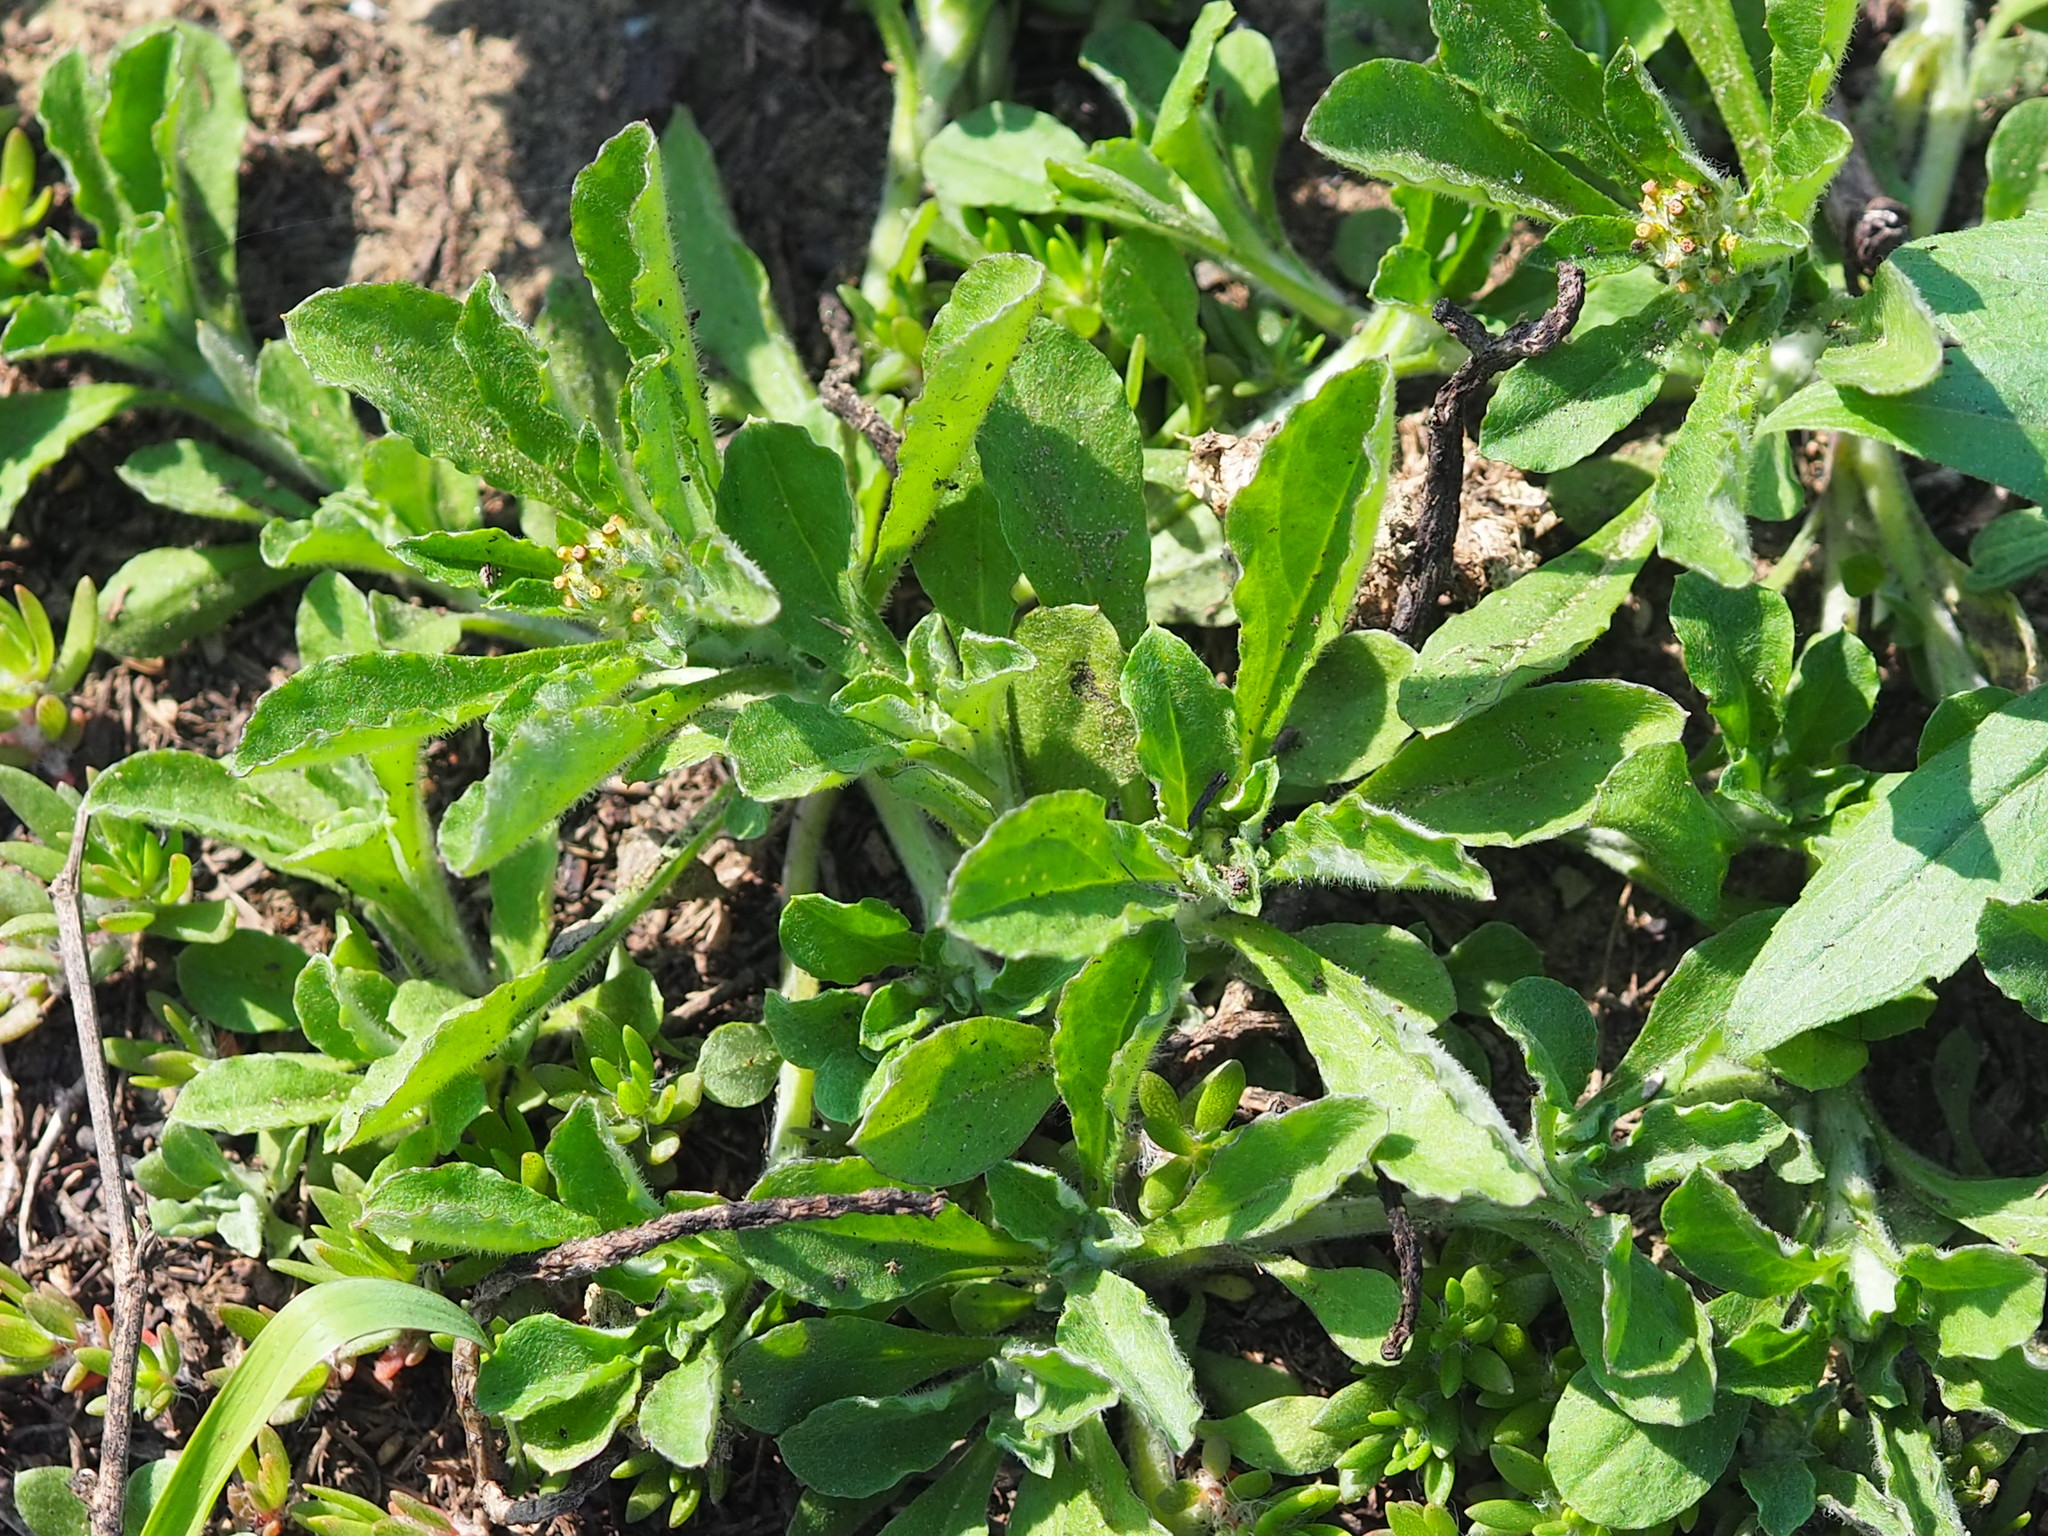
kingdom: Plantae
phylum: Tracheophyta
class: Magnoliopsida
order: Asterales
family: Asteraceae
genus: Gamochaeta
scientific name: Gamochaeta purpurea
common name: Purple cudweed
